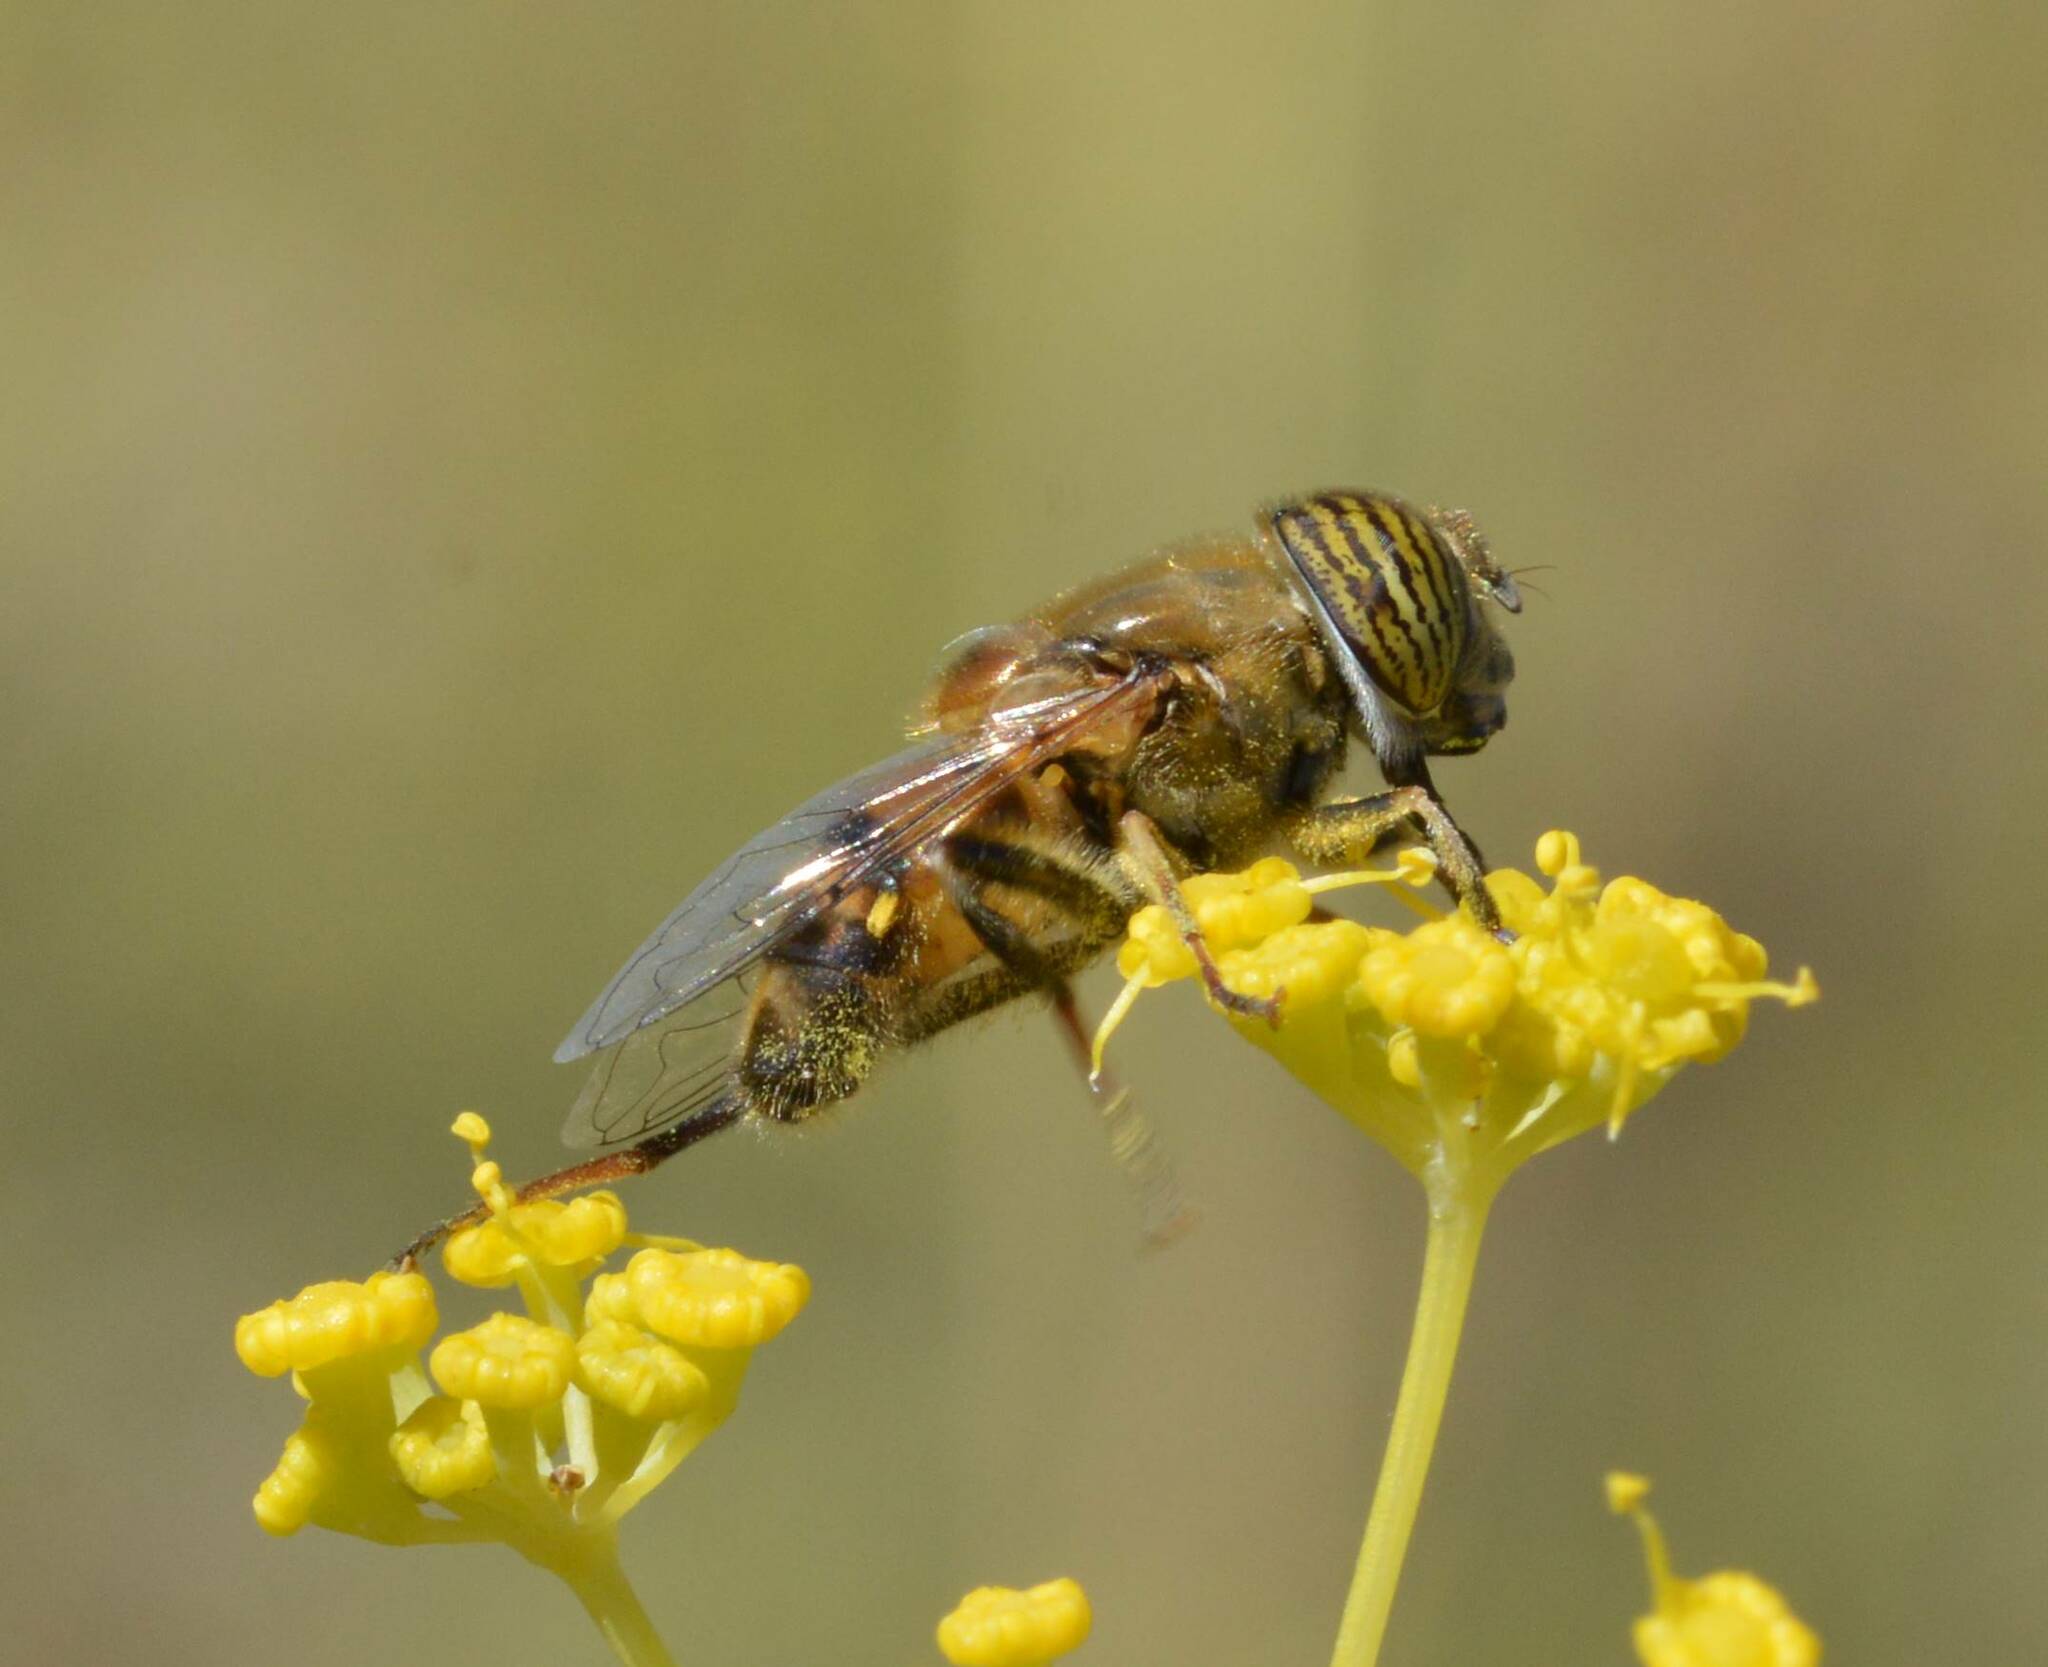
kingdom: Animalia
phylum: Arthropoda
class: Insecta
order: Diptera
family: Syrphidae
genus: Eristalinus
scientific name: Eristalinus taeniops
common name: Syrphid fly
